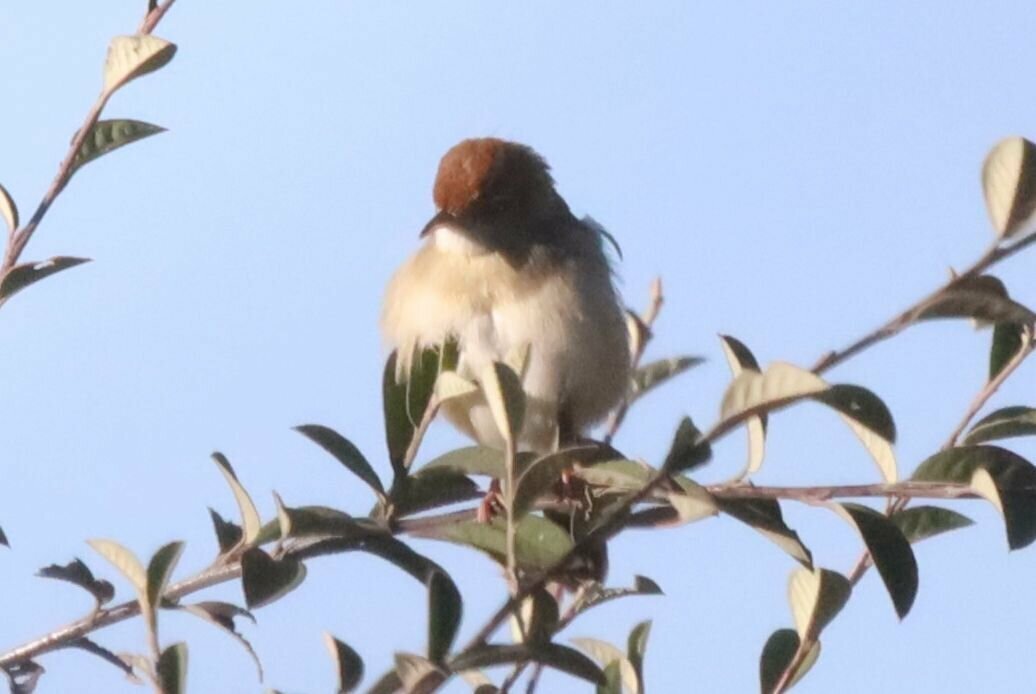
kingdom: Animalia
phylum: Chordata
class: Aves
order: Passeriformes
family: Cisticolidae
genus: Cisticola
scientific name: Cisticola fulvicapilla
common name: Neddicky
